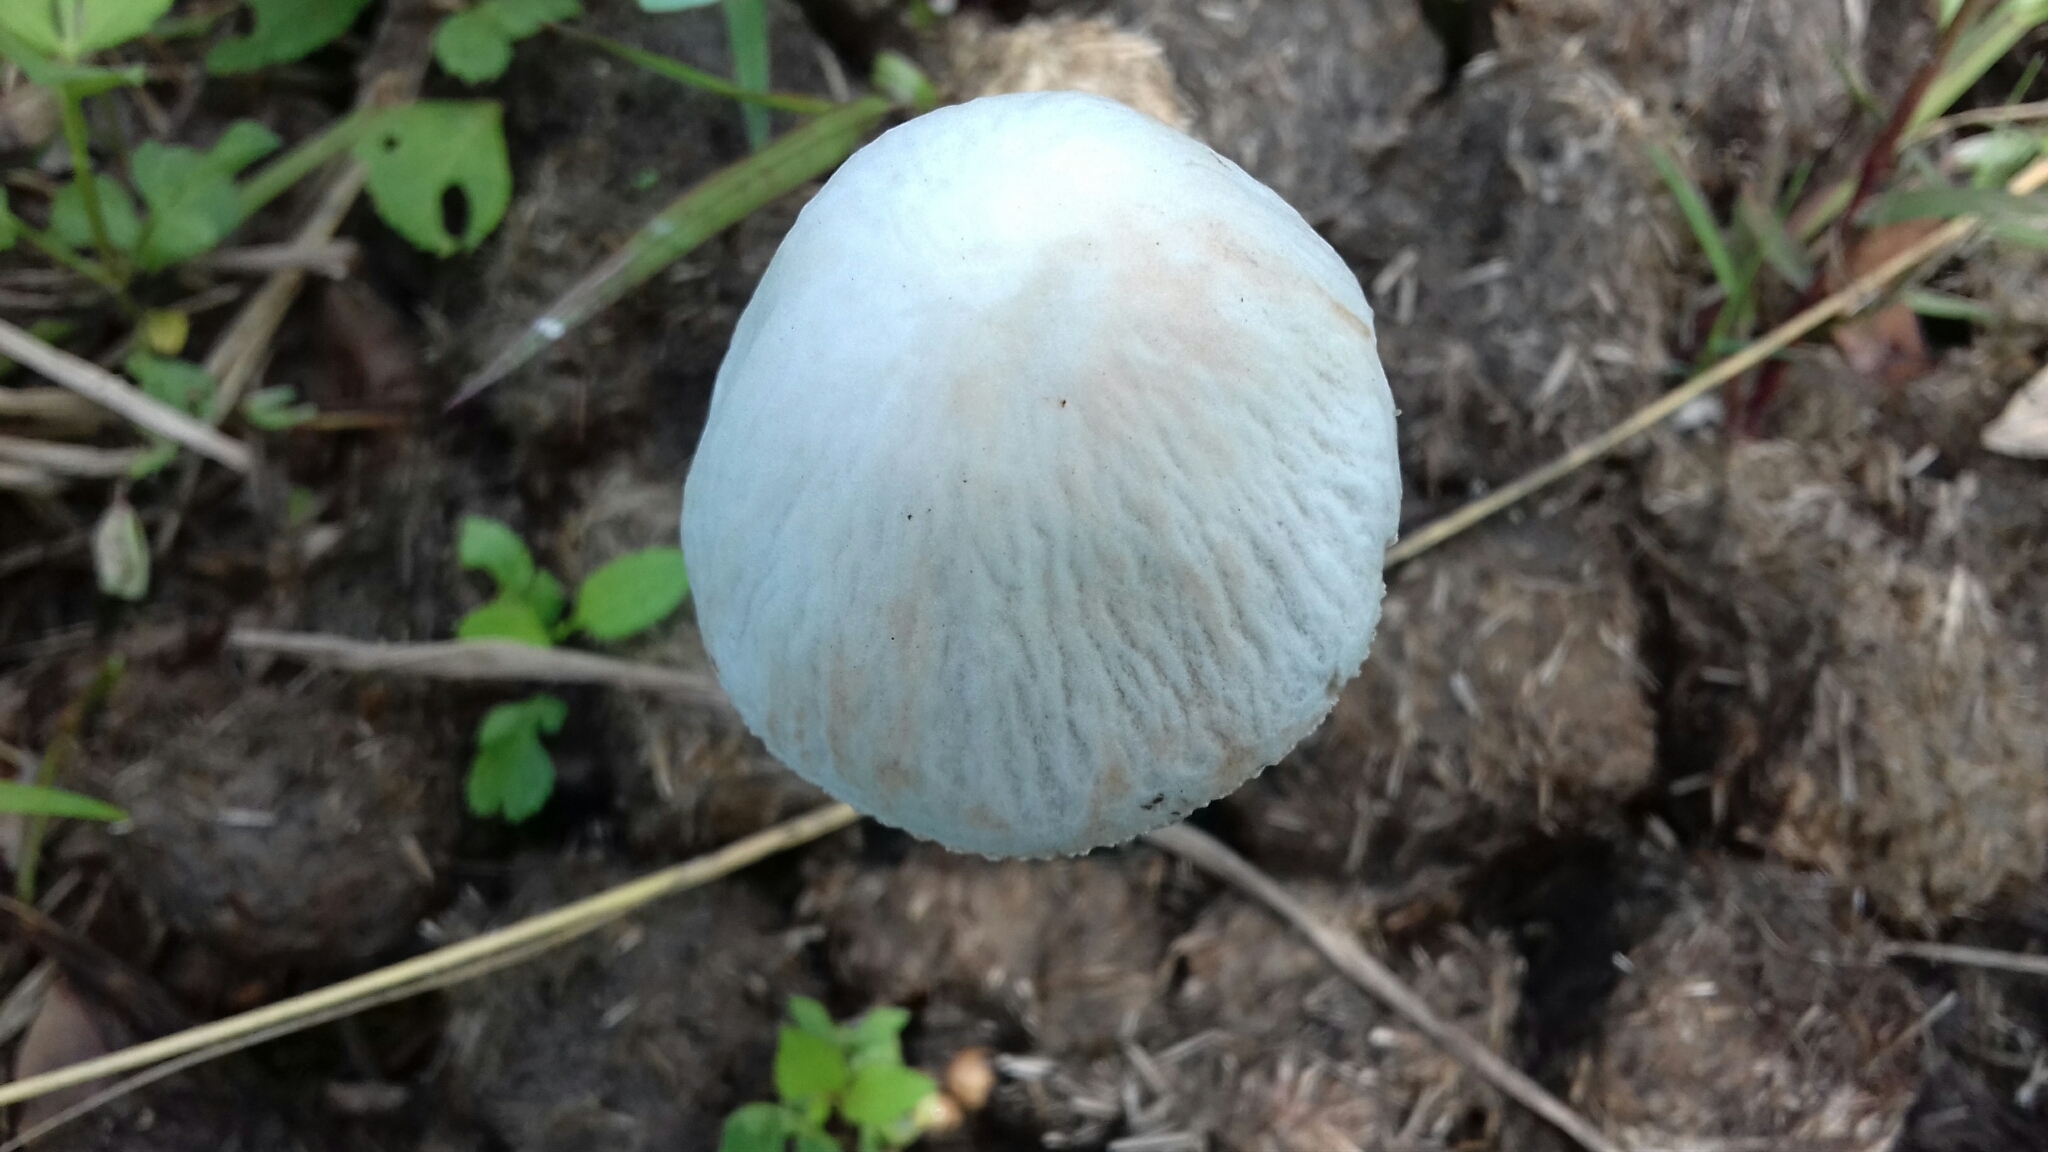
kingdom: Fungi
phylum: Basidiomycota
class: Agaricomycetes
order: Agaricales
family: Bolbitiaceae
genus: Panaeolus
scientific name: Panaeolus antillarum
